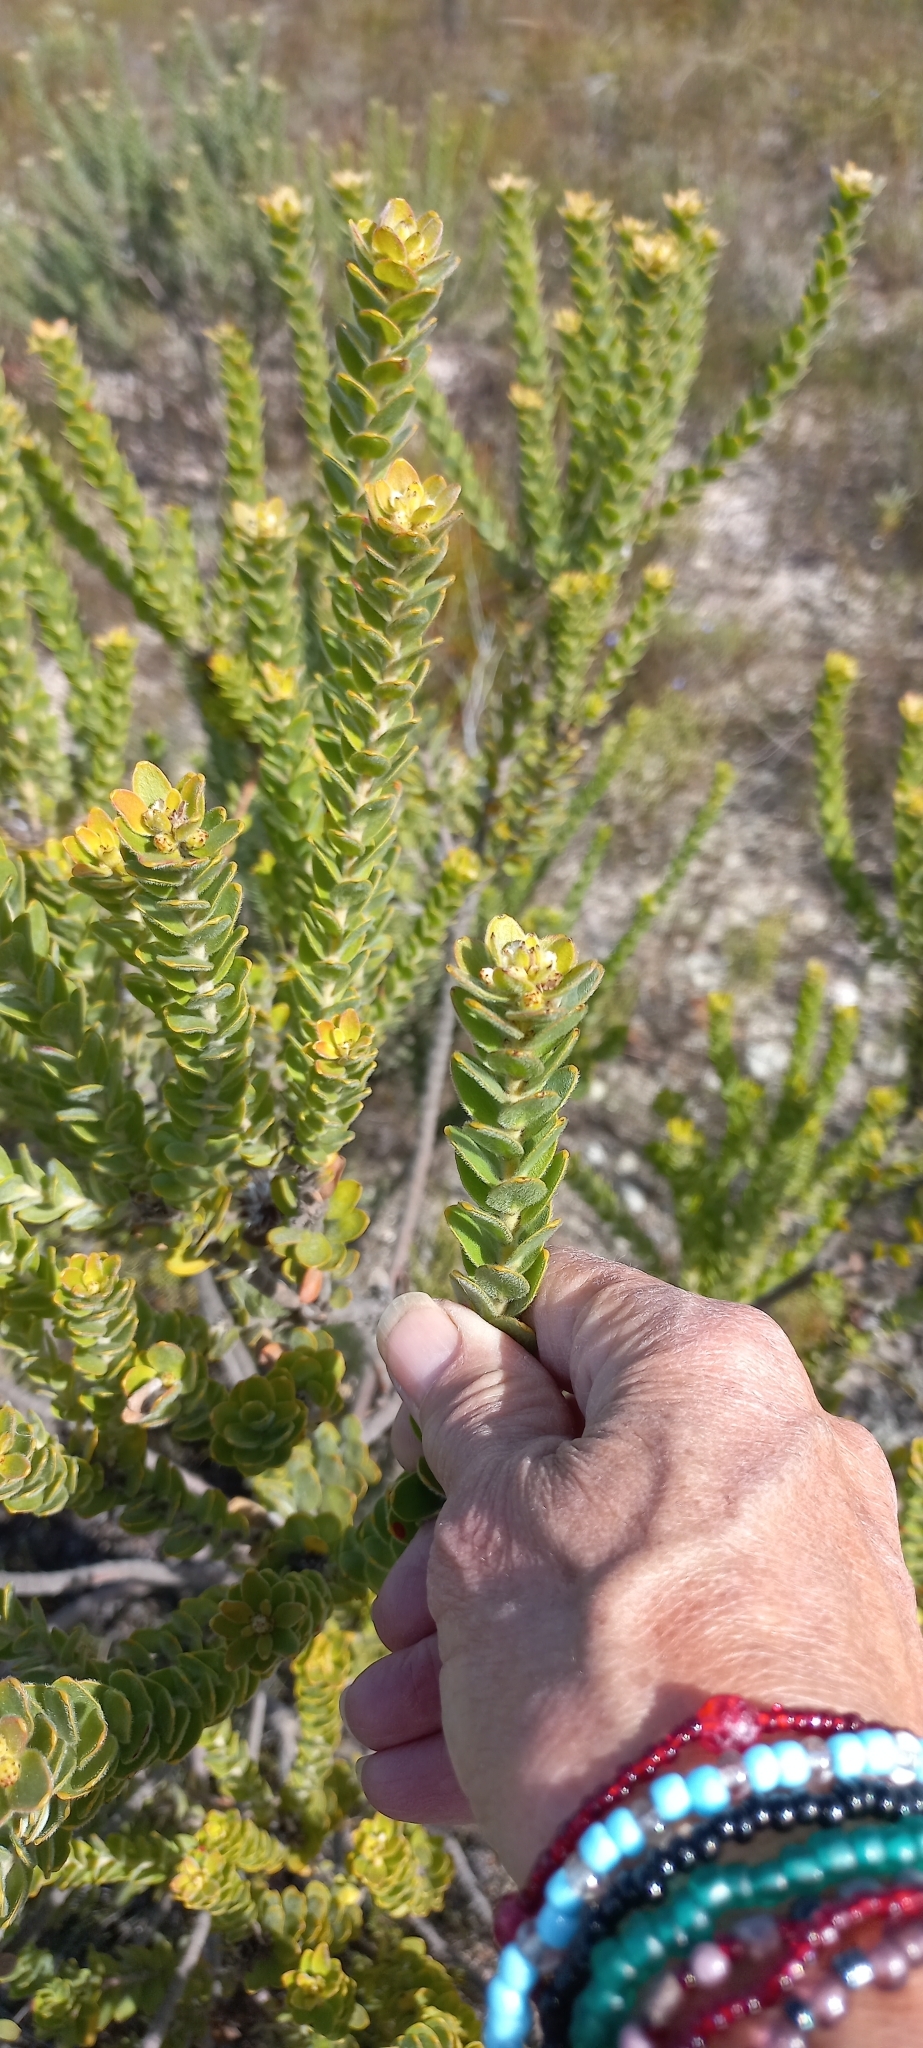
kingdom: Plantae
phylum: Tracheophyta
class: Magnoliopsida
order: Proteales
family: Proteaceae
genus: Leucospermum
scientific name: Leucospermum truncatulum
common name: Oval-leaf pincushion
